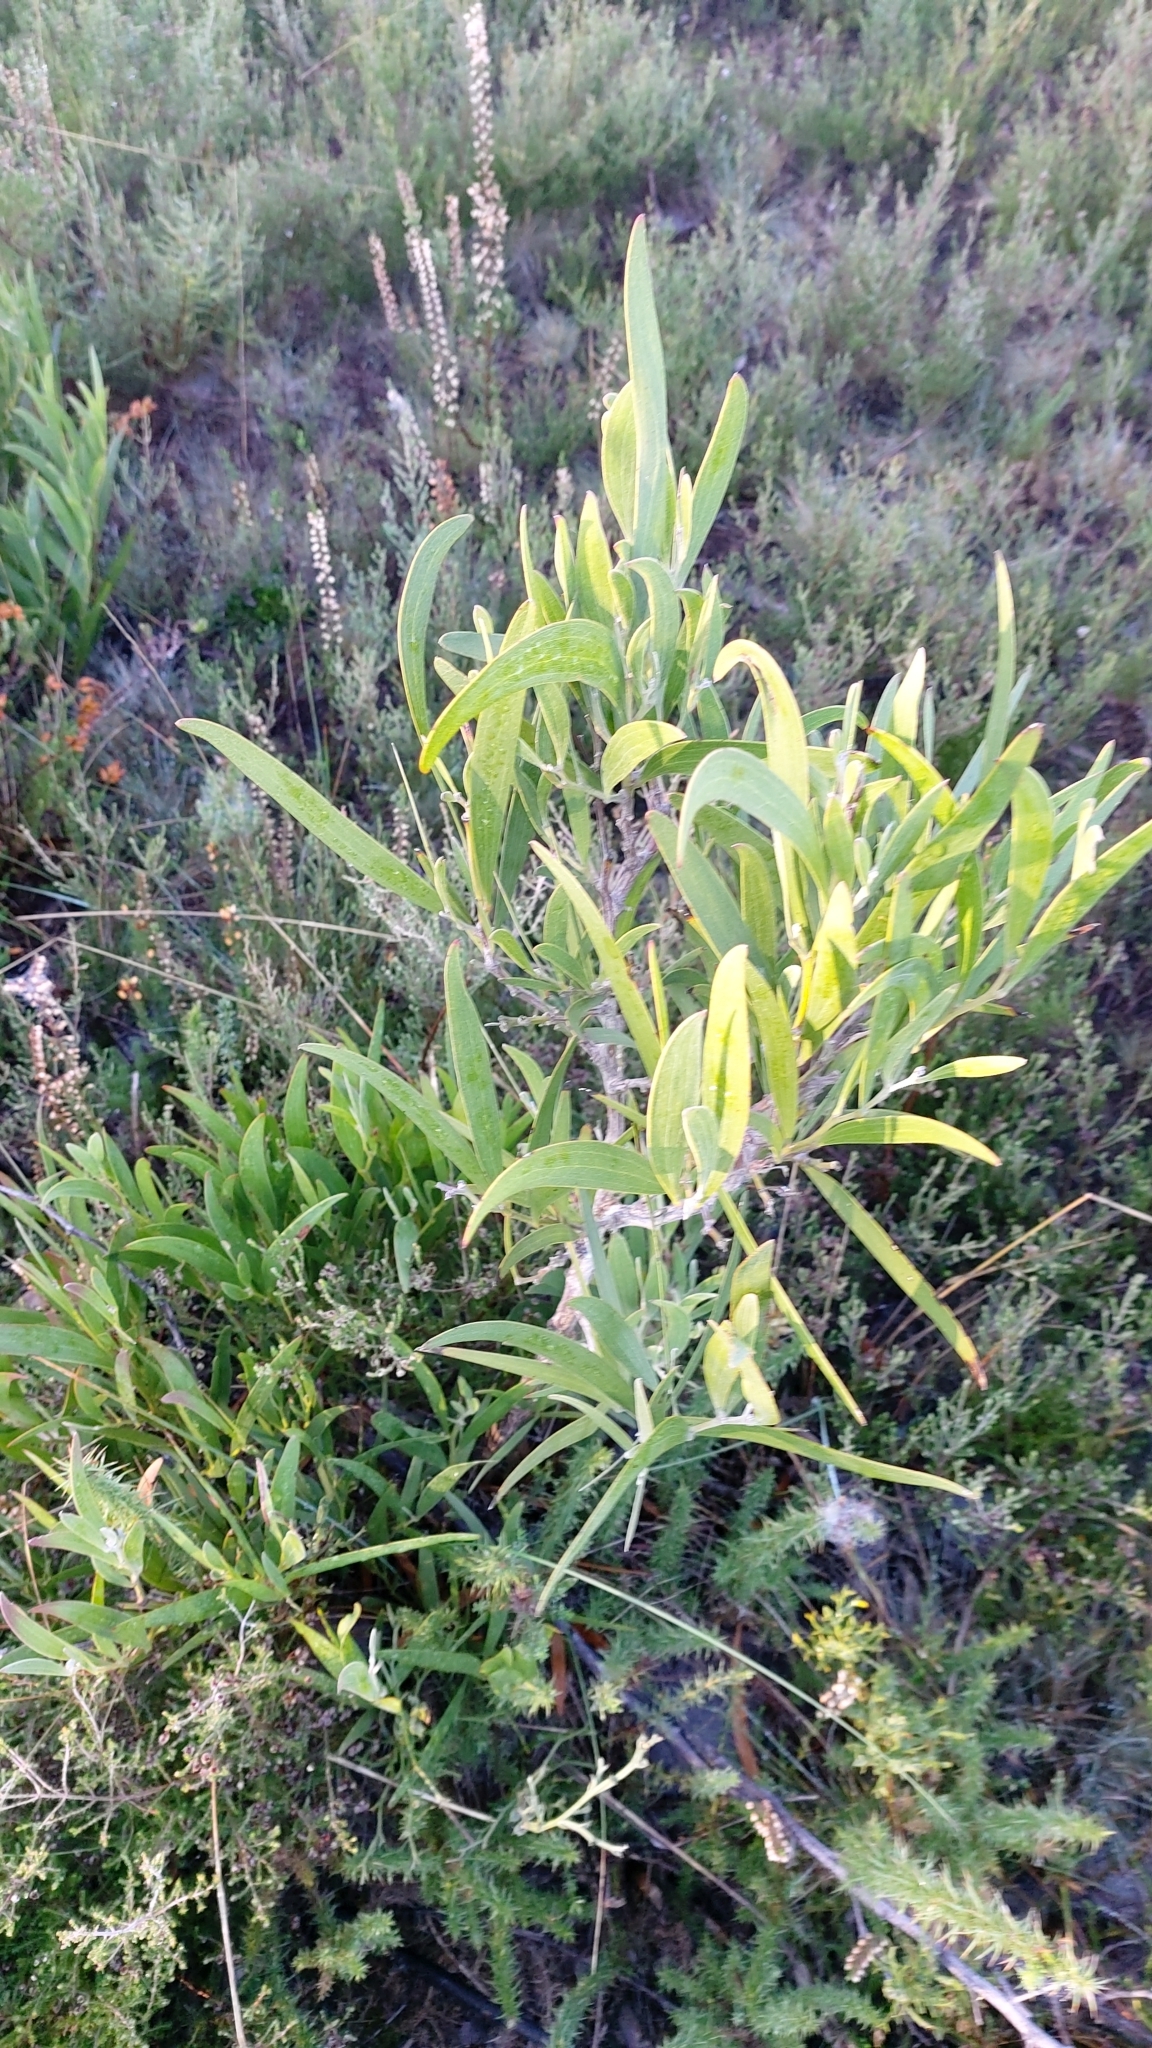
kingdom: Plantae
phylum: Tracheophyta
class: Magnoliopsida
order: Fabales
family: Fabaceae
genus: Acacia
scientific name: Acacia melanoxylon
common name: Blackwood
